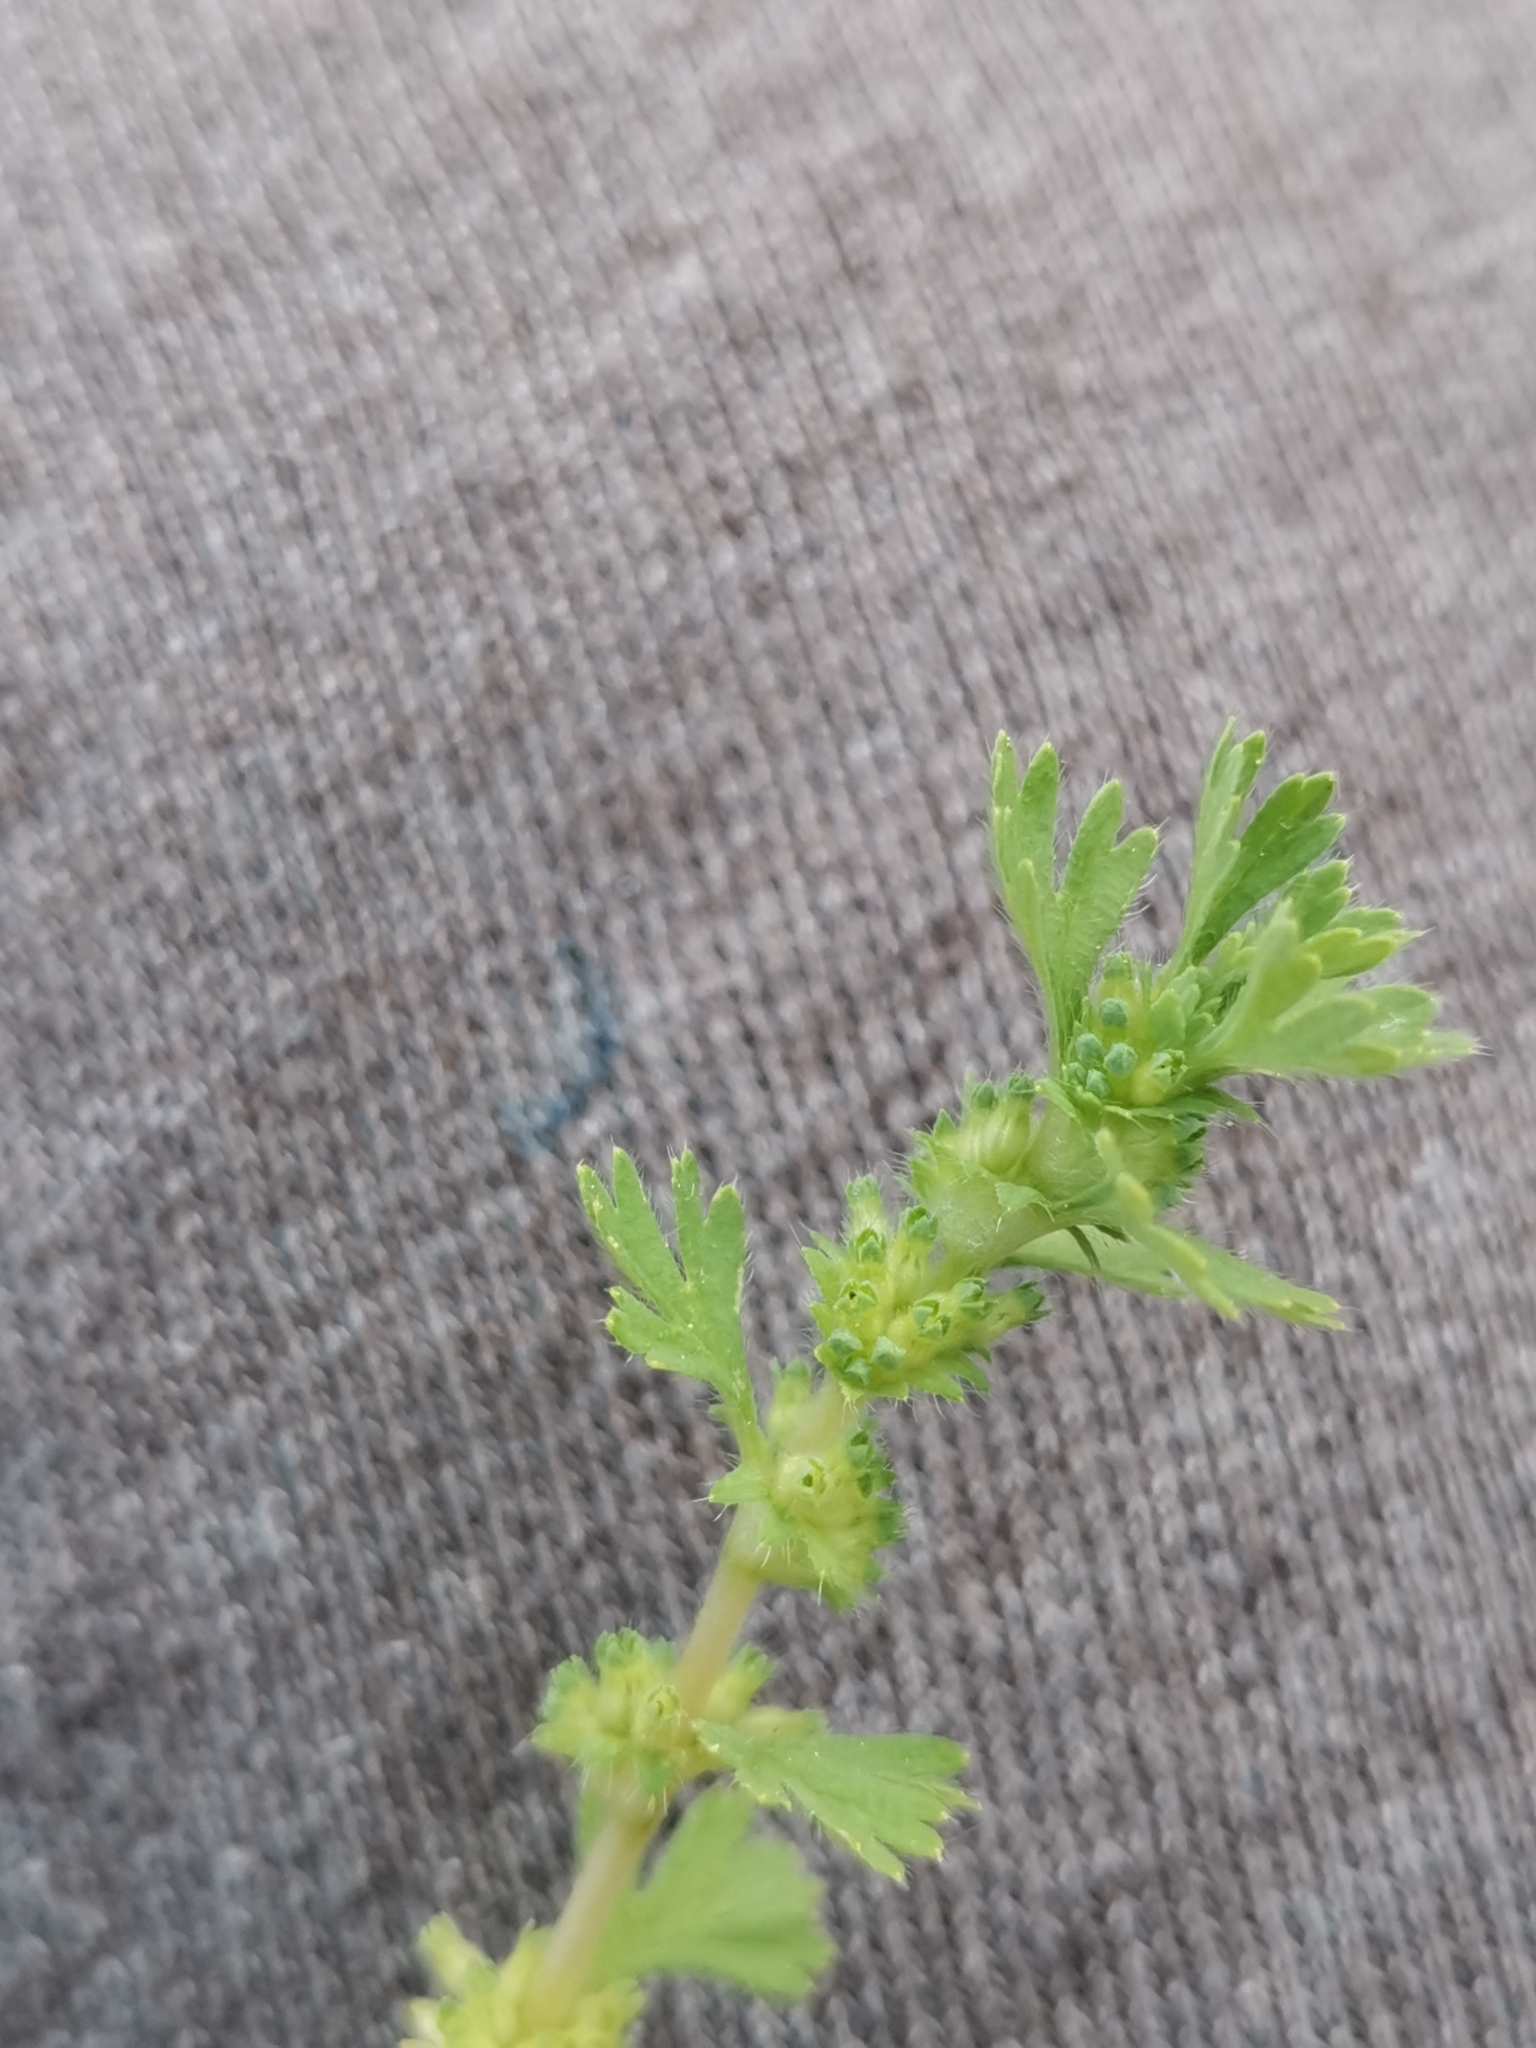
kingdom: Plantae
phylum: Tracheophyta
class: Magnoliopsida
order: Rosales
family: Rosaceae
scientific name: Rosaceae
